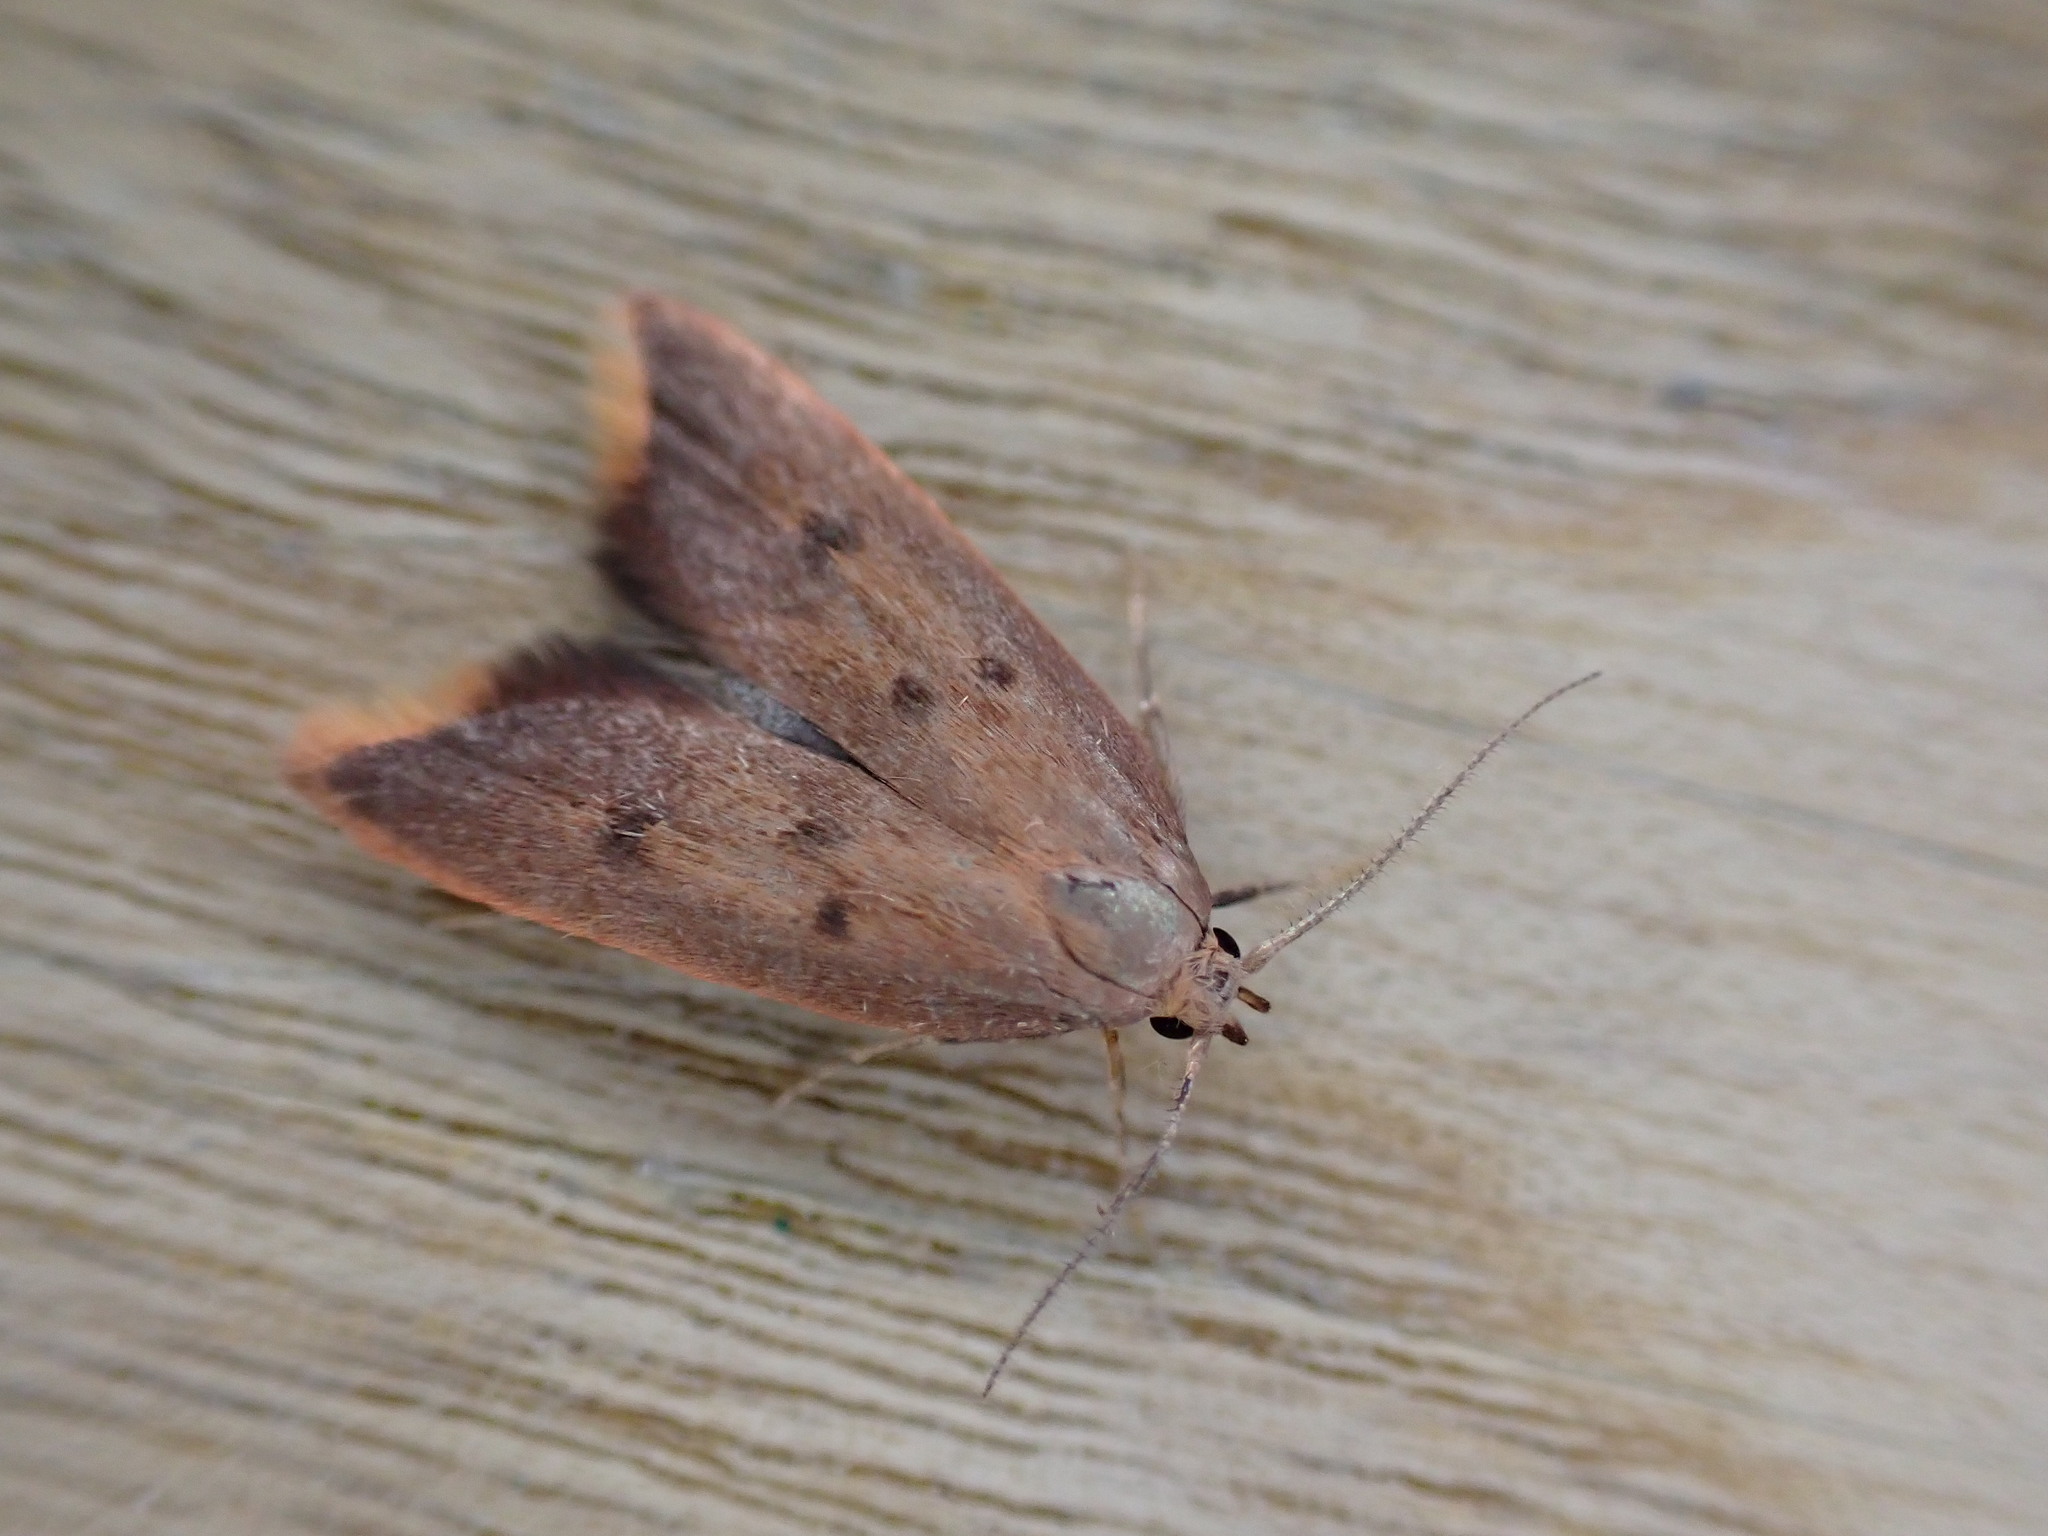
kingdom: Animalia
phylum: Arthropoda
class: Insecta
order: Lepidoptera
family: Oecophoridae
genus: Tachystola
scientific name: Tachystola acroxantha
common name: Ruddy streak
